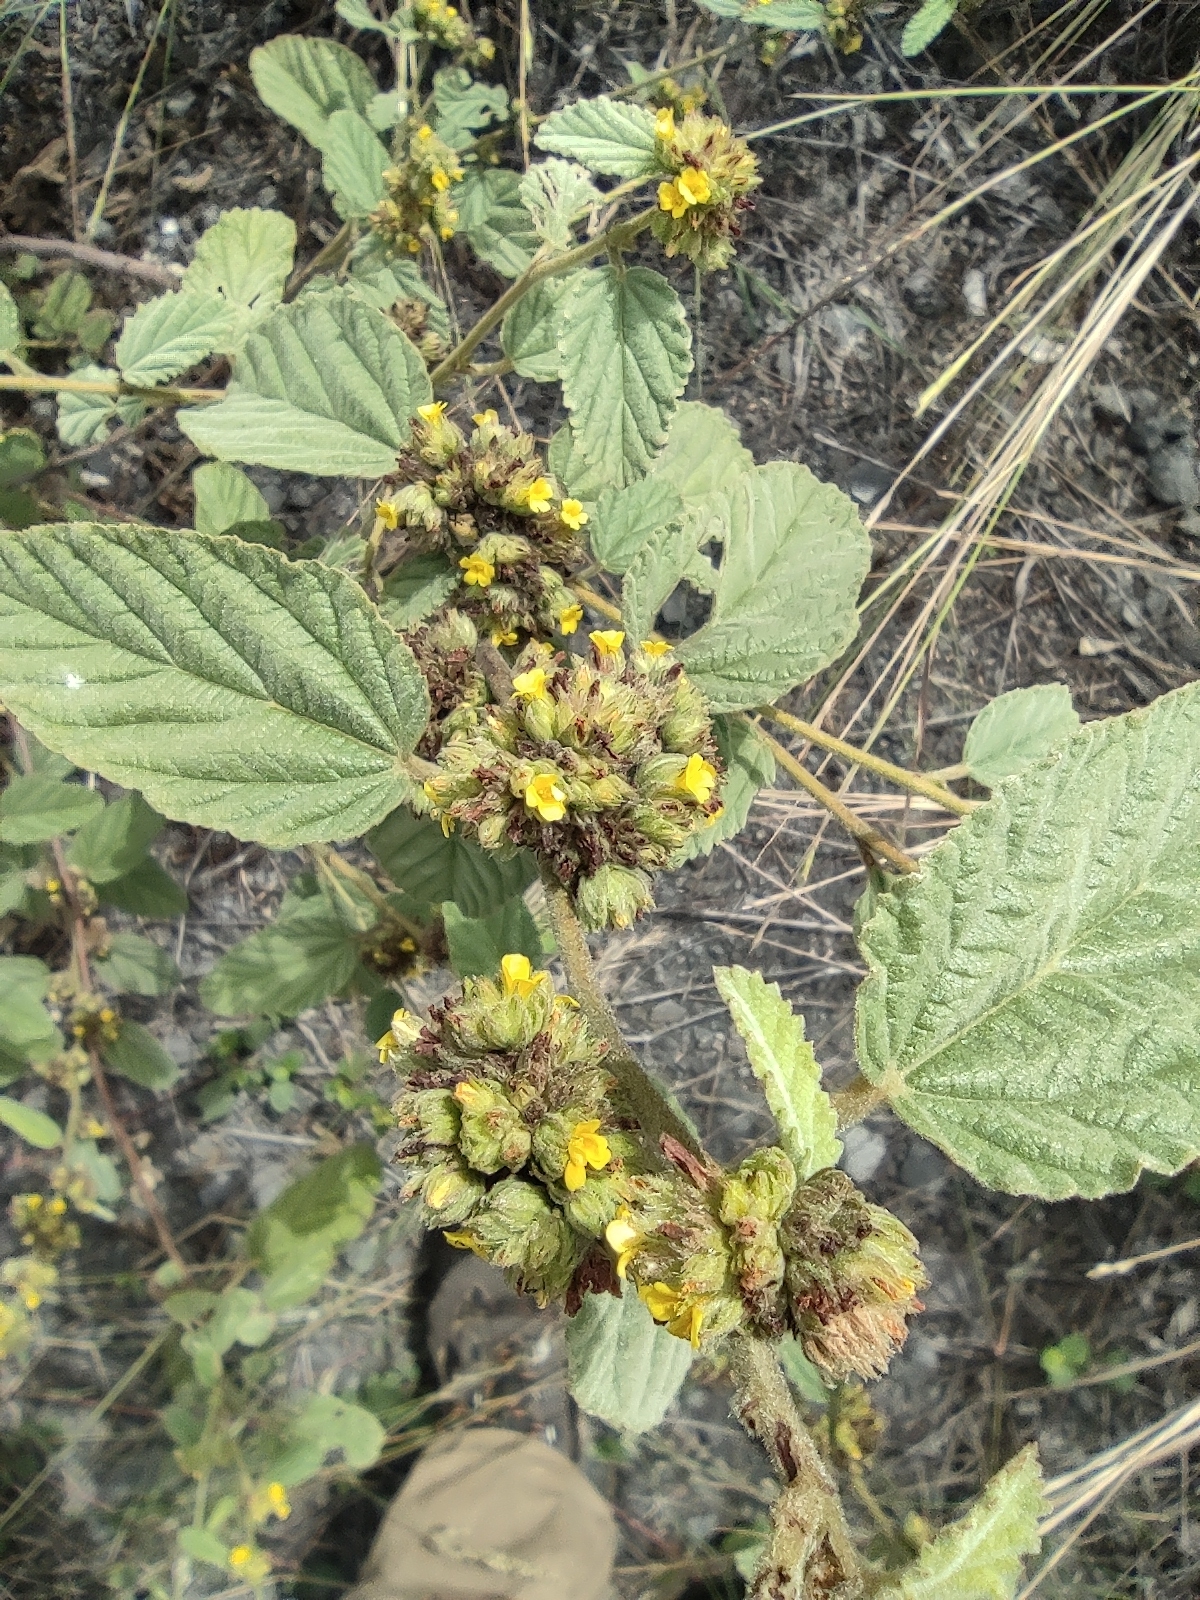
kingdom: Plantae
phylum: Tracheophyta
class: Magnoliopsida
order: Malvales
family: Malvaceae
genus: Waltheria
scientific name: Waltheria indica
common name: Leather-coat
